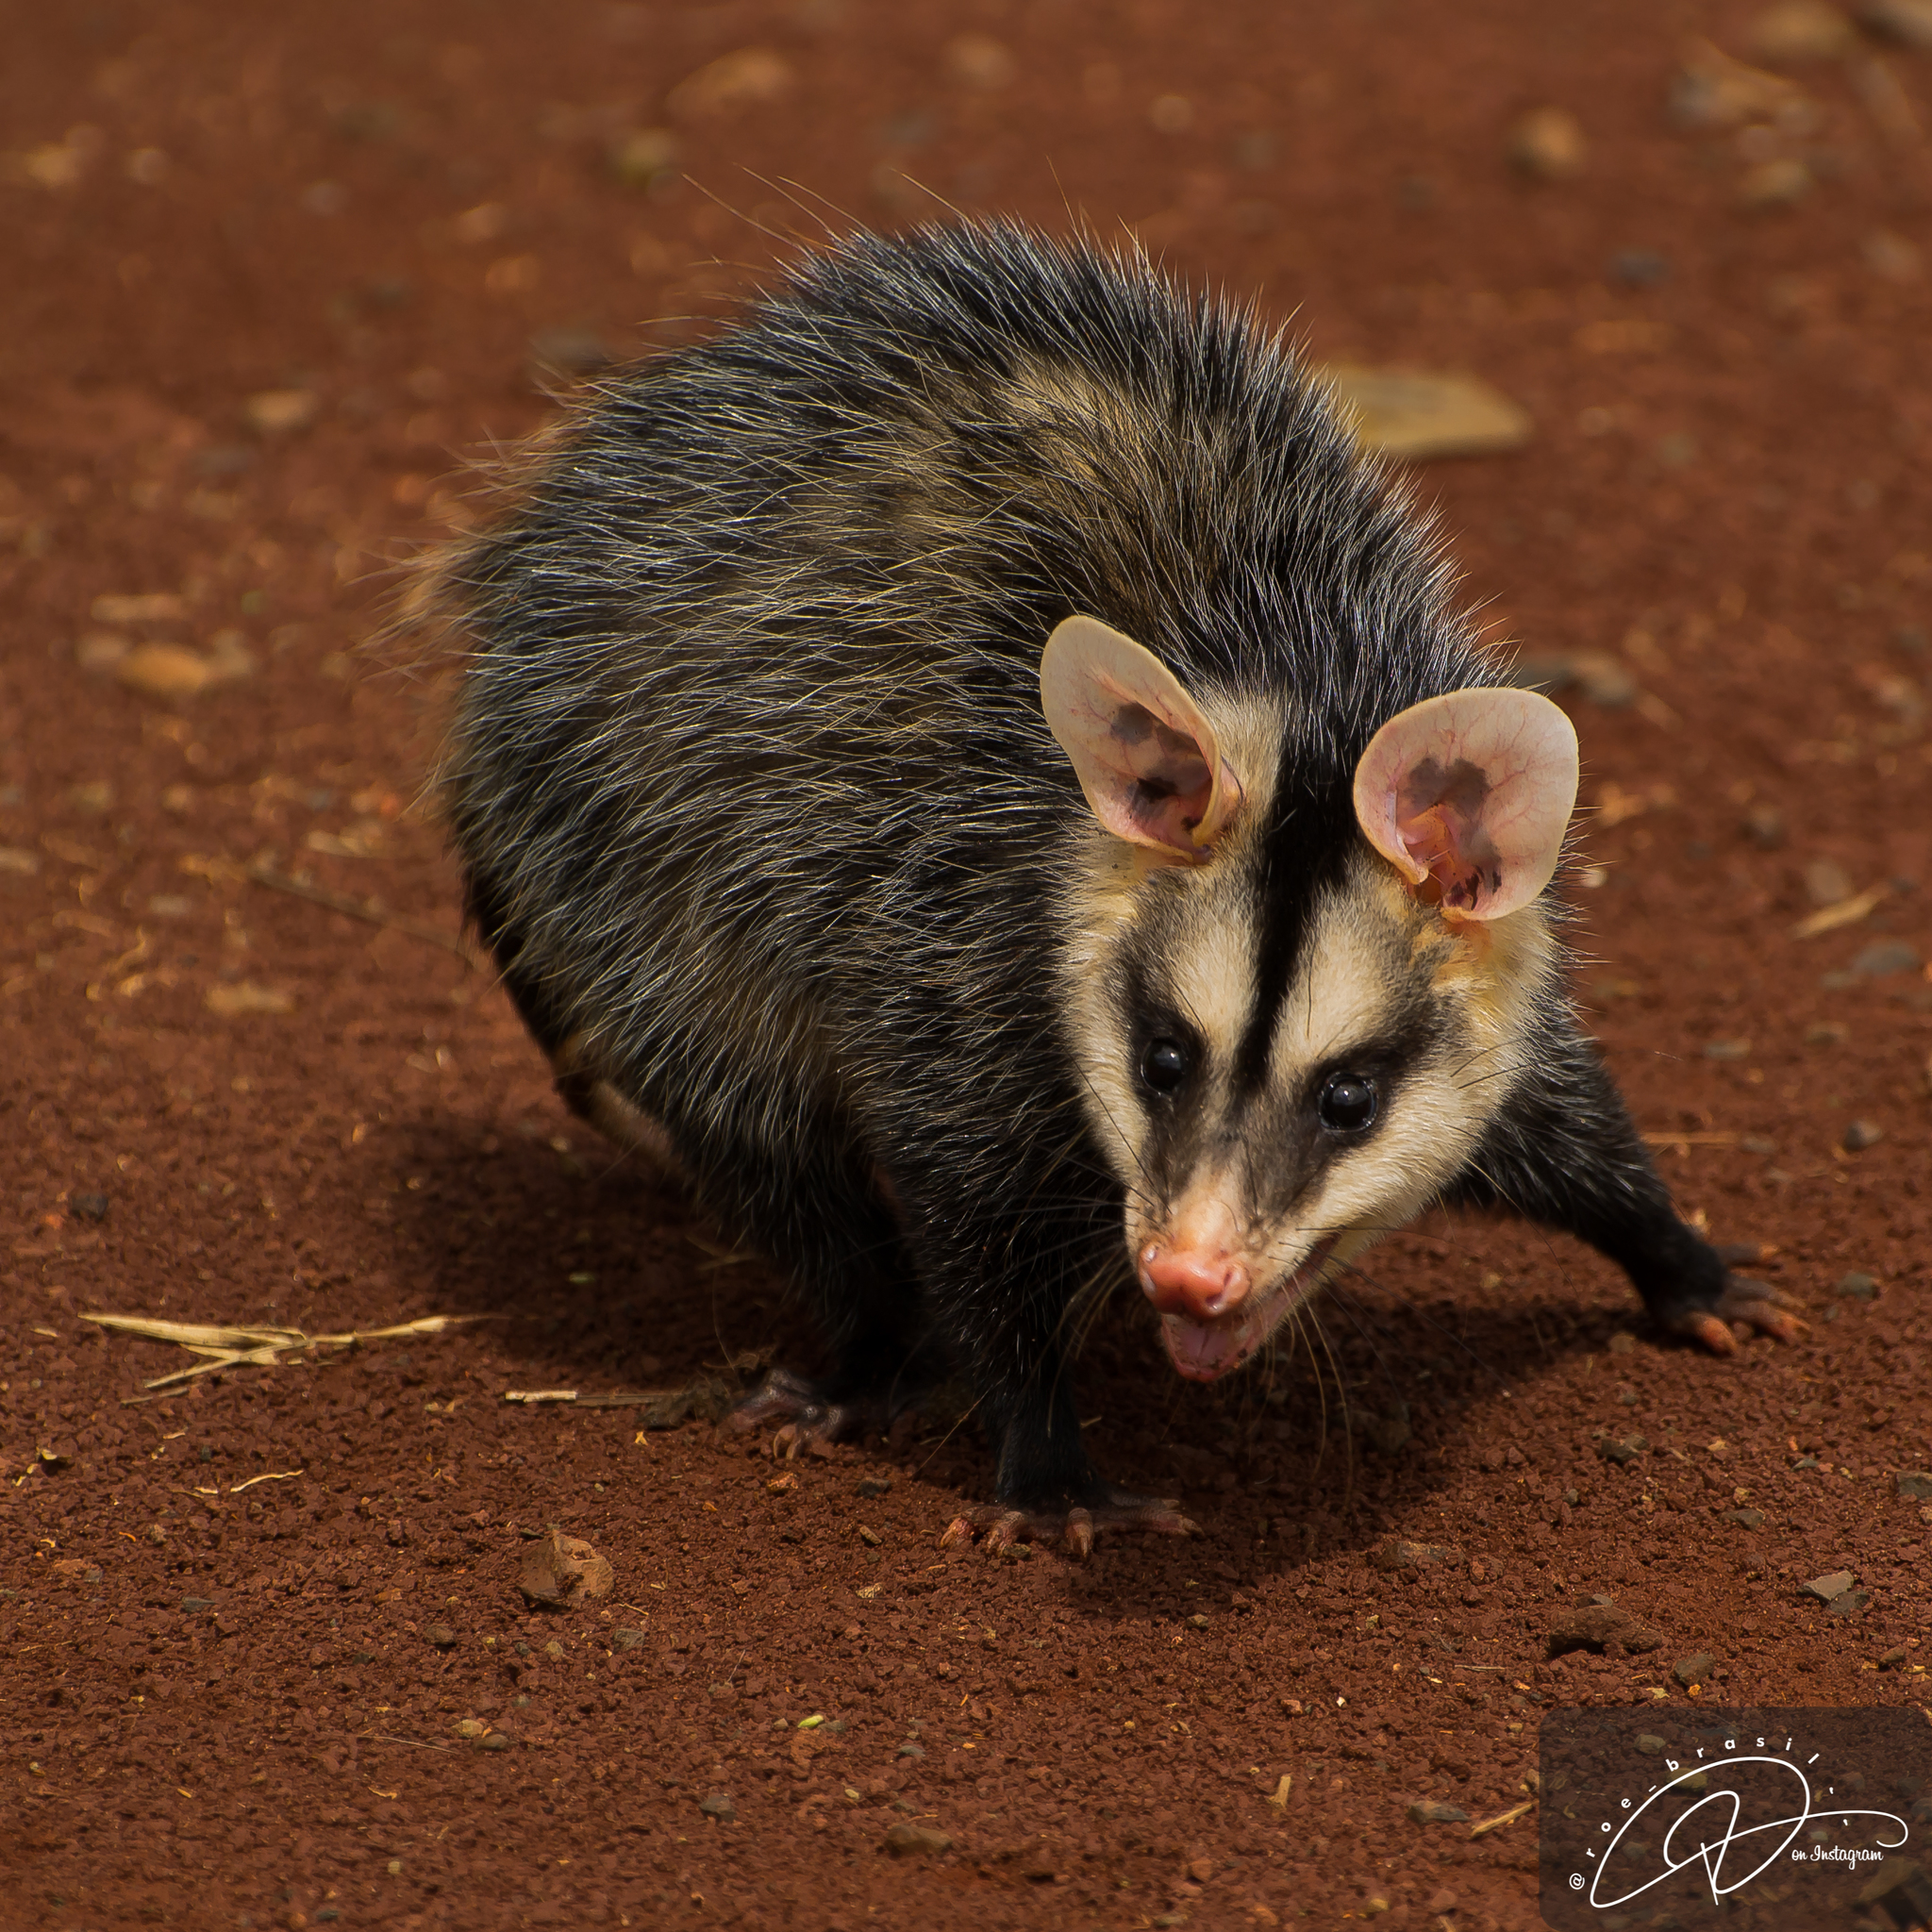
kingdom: Animalia
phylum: Chordata
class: Mammalia
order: Didelphimorphia
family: Didelphidae
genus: Didelphis
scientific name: Didelphis albiventris
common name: White-eared opossum
